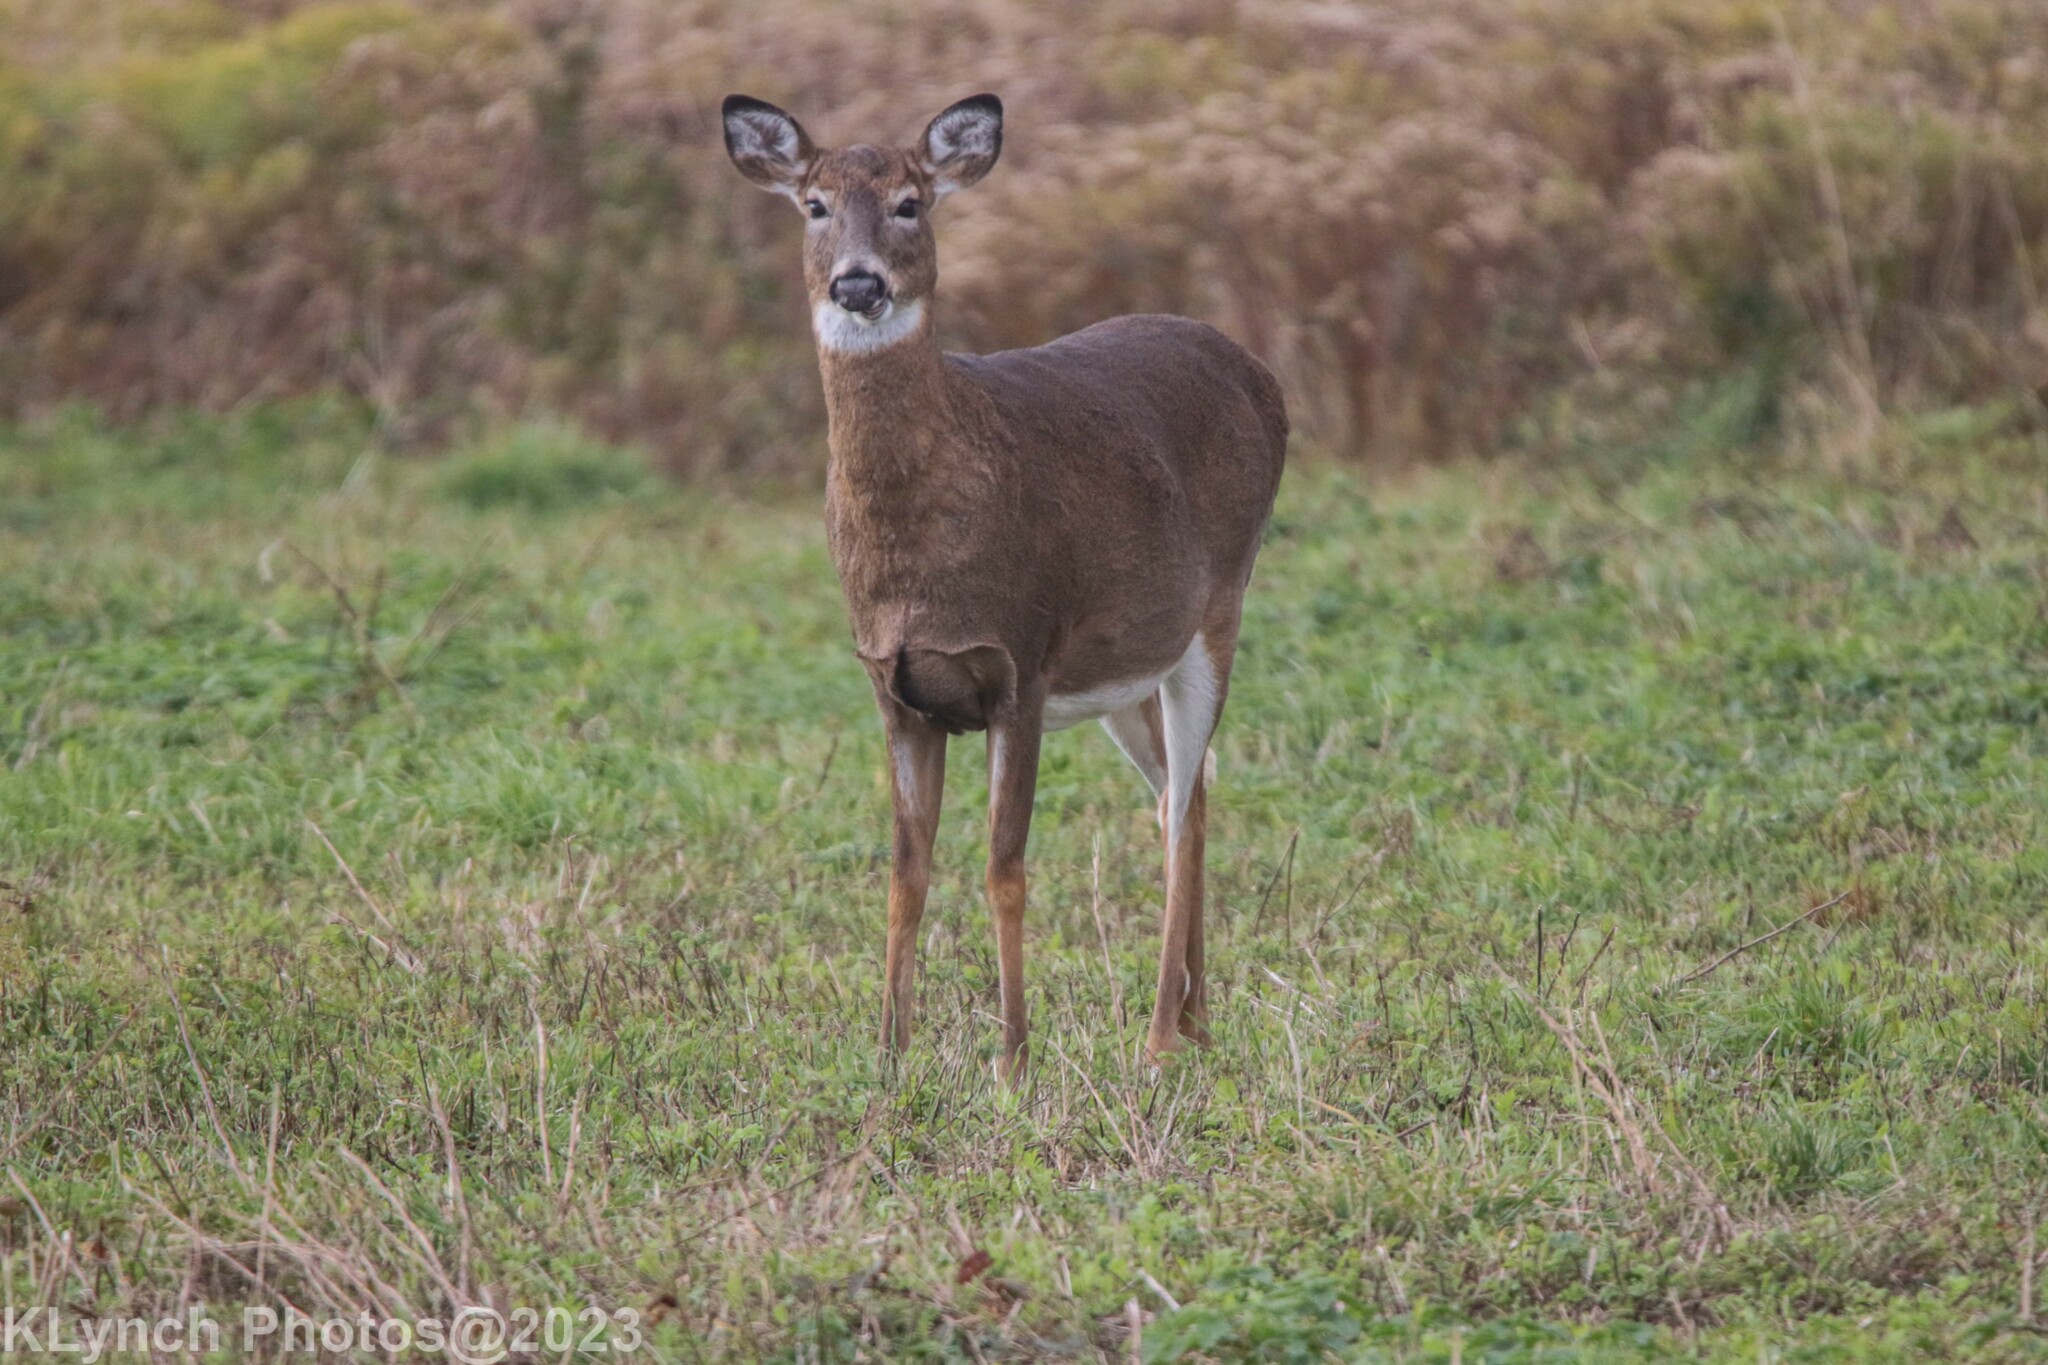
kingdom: Animalia
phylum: Chordata
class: Mammalia
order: Artiodactyla
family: Cervidae
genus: Odocoileus
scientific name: Odocoileus virginianus
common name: White-tailed deer
